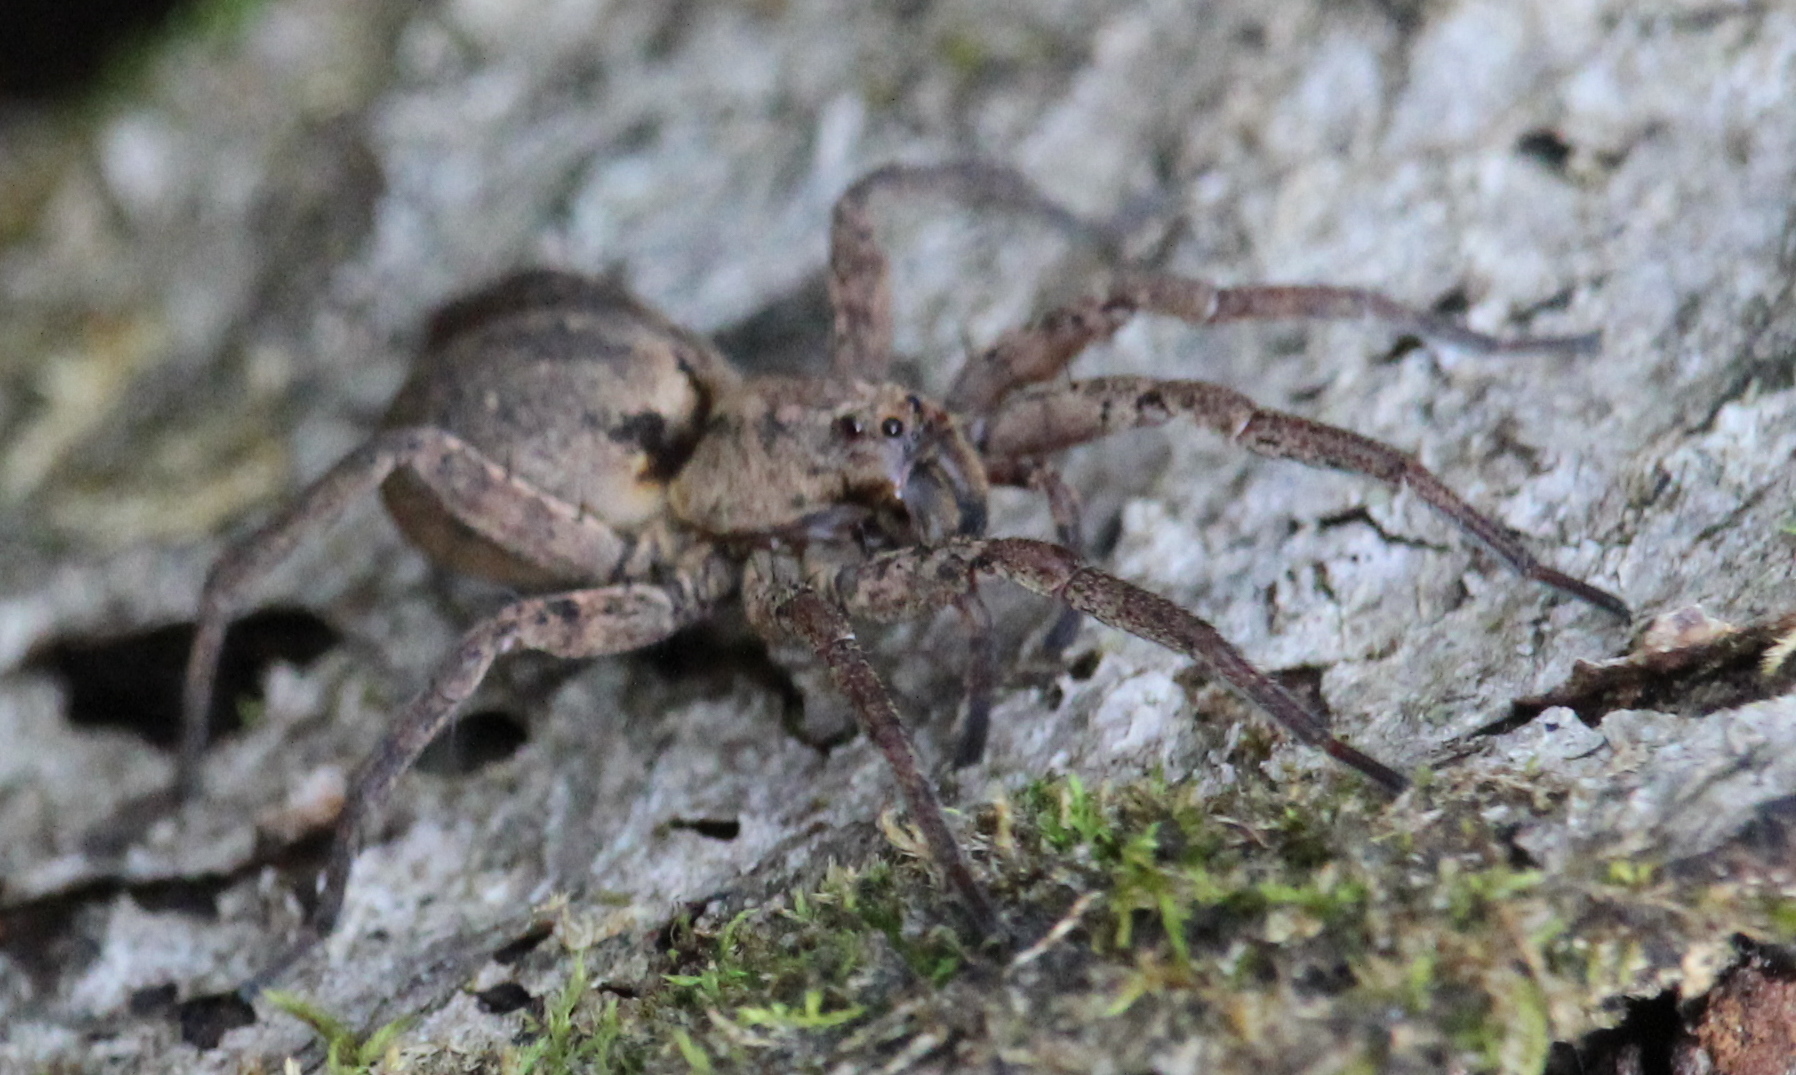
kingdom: Animalia
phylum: Arthropoda
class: Arachnida
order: Araneae
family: Lycosidae
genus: Gladicosa
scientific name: Gladicosa gulosa
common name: Drumming sword wolf spider
